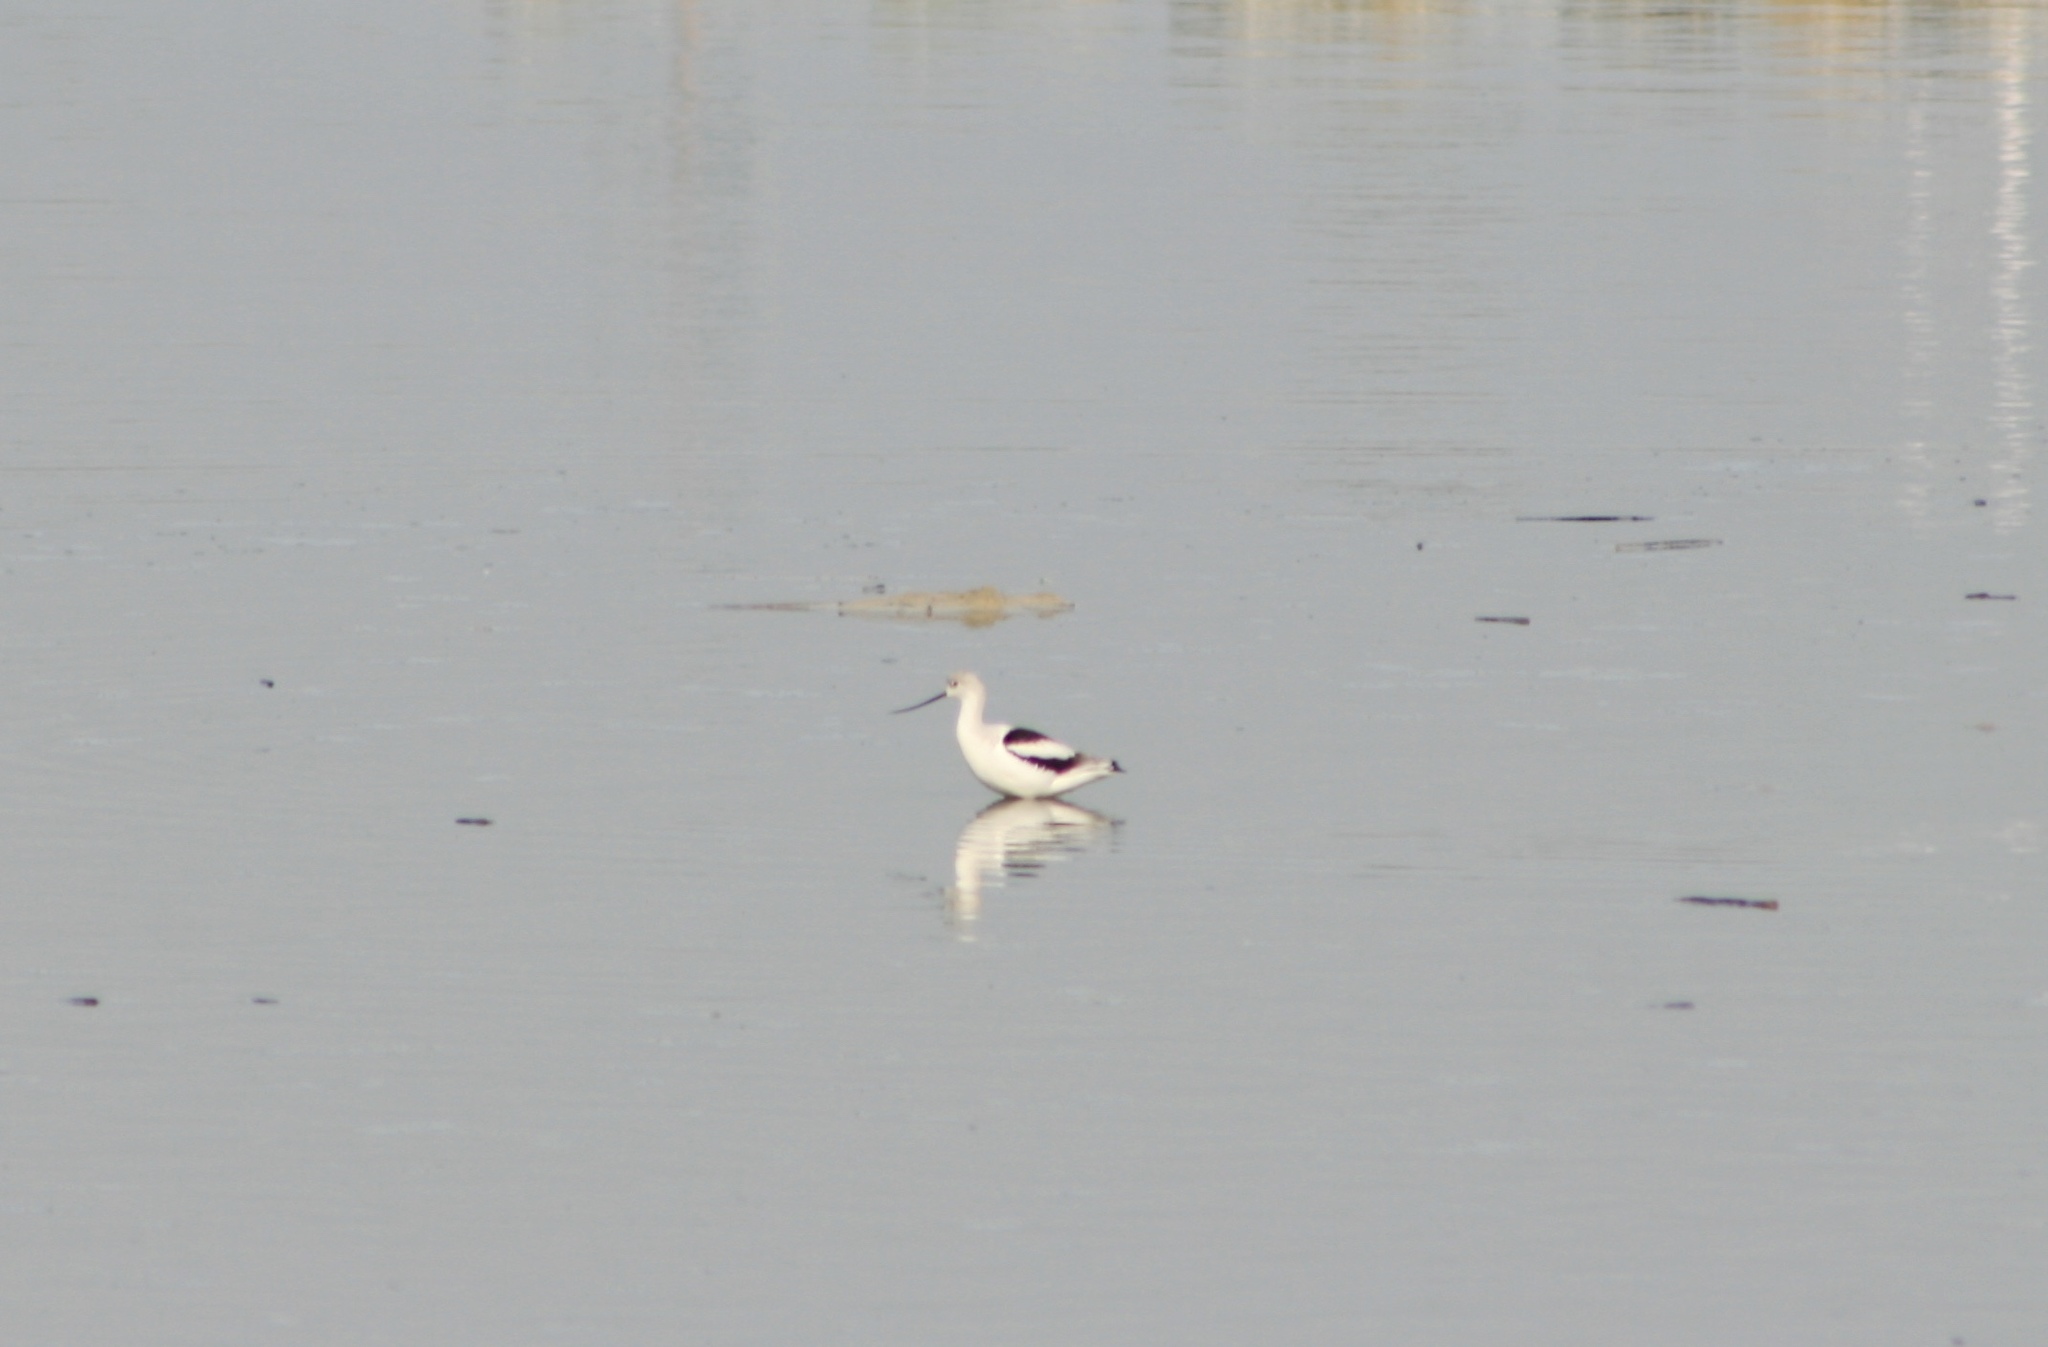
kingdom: Animalia
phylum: Chordata
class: Aves
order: Charadriiformes
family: Recurvirostridae
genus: Recurvirostra
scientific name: Recurvirostra americana
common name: American avocet
